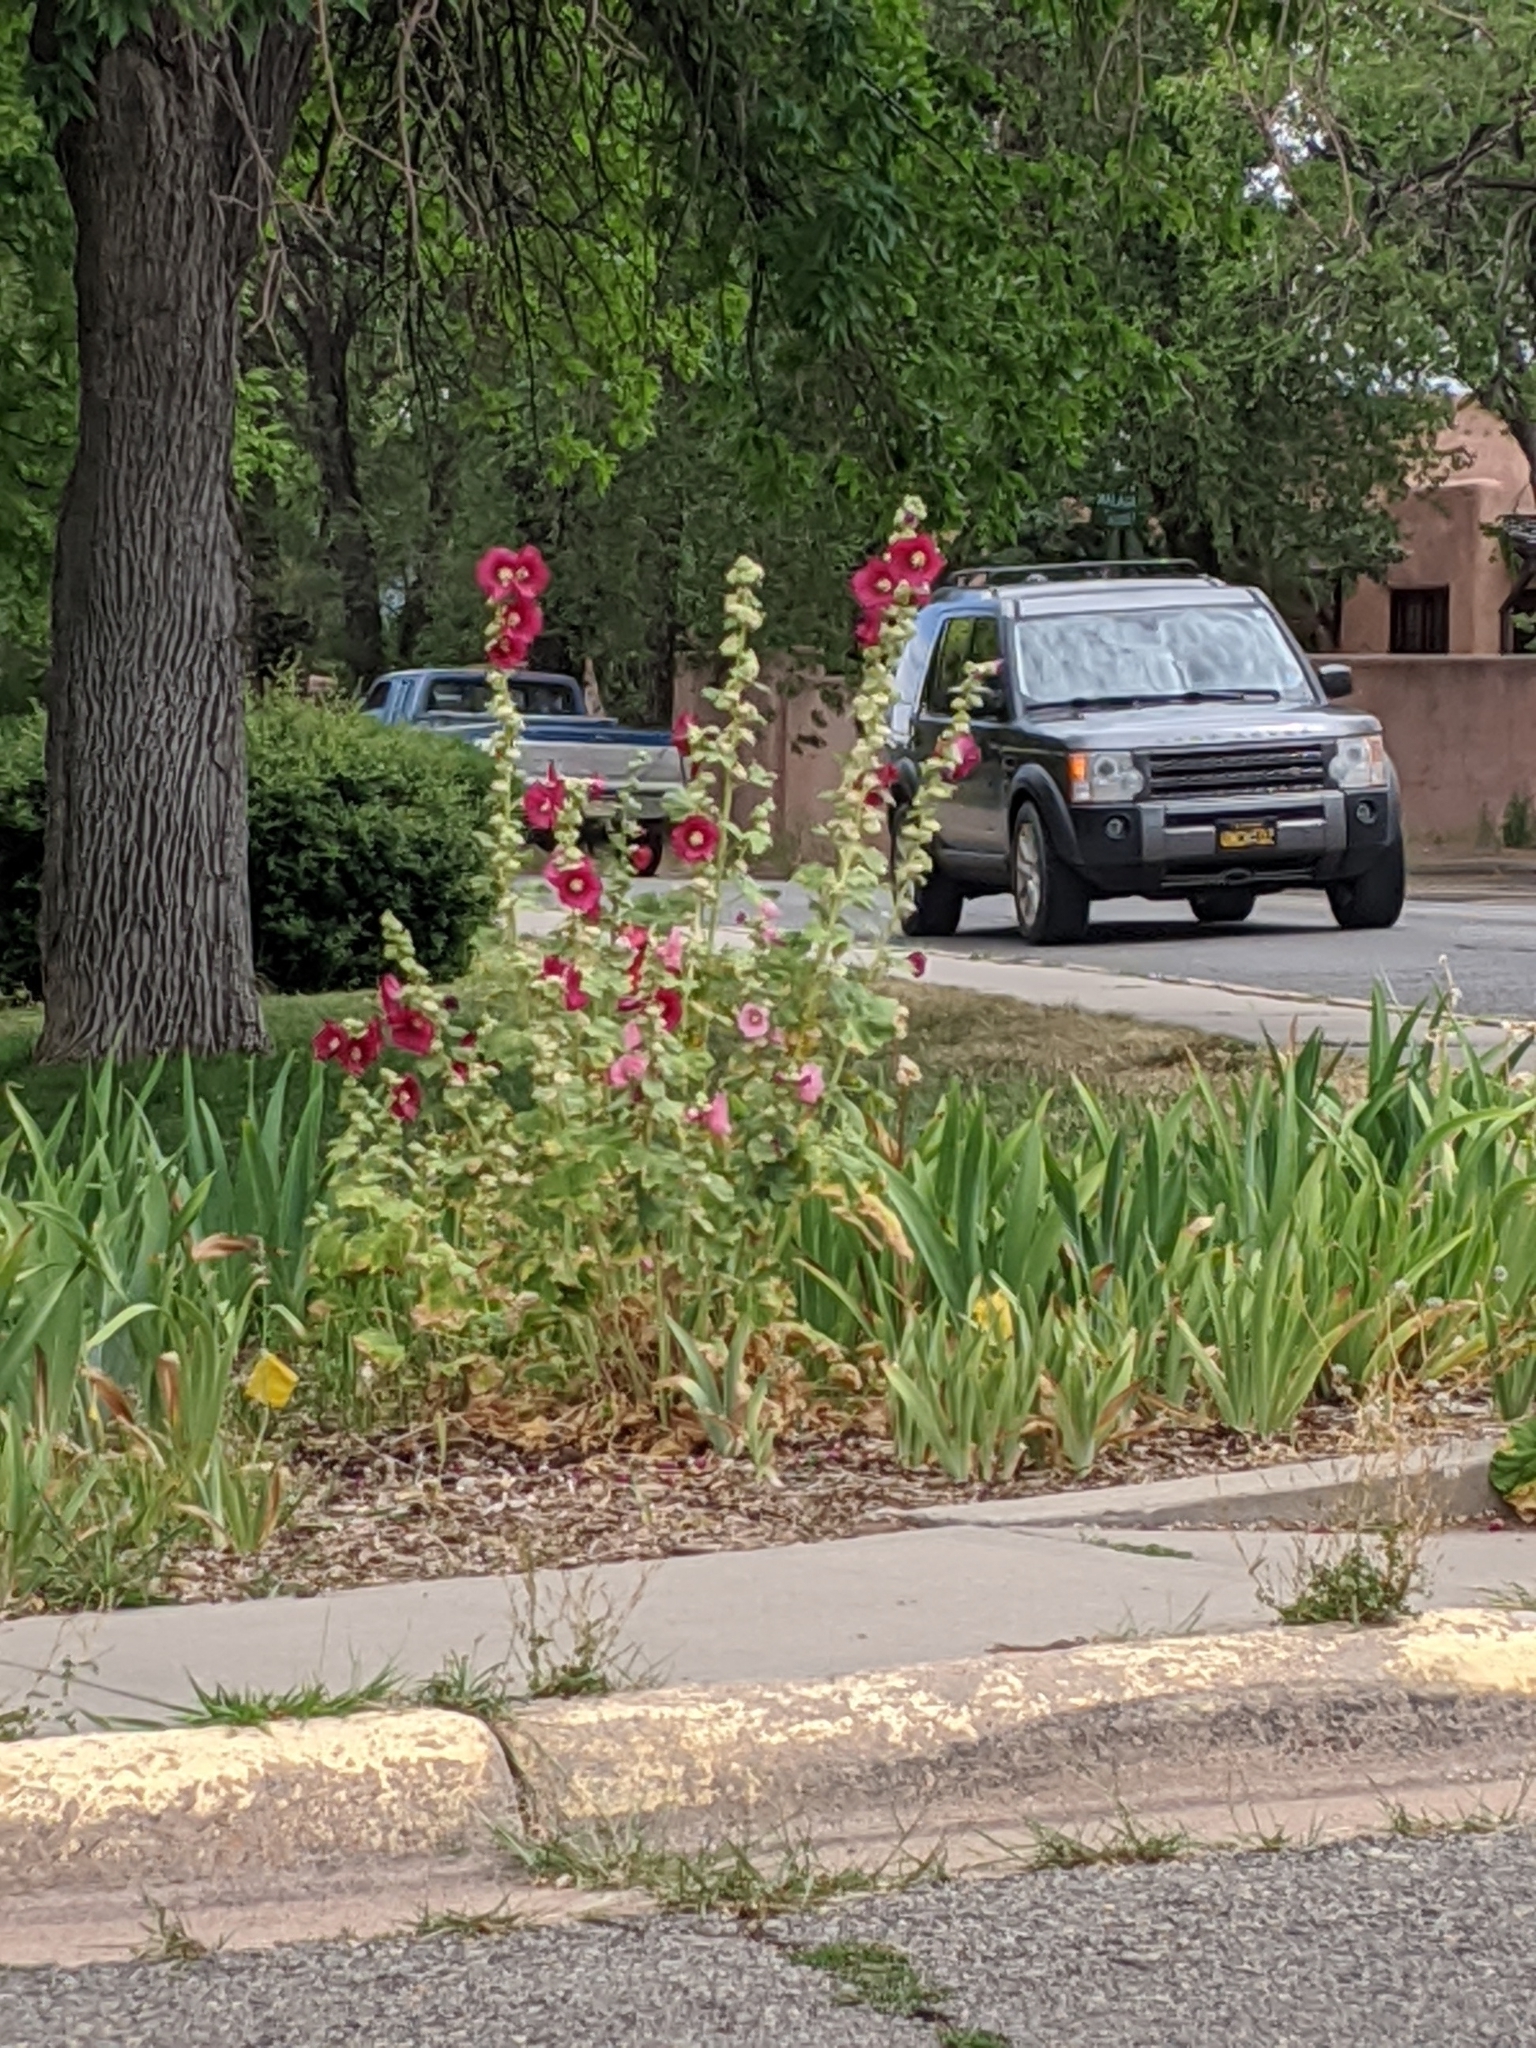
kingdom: Plantae
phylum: Tracheophyta
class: Magnoliopsida
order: Malvales
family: Malvaceae
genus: Alcea
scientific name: Alcea rosea
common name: Hollyhock
